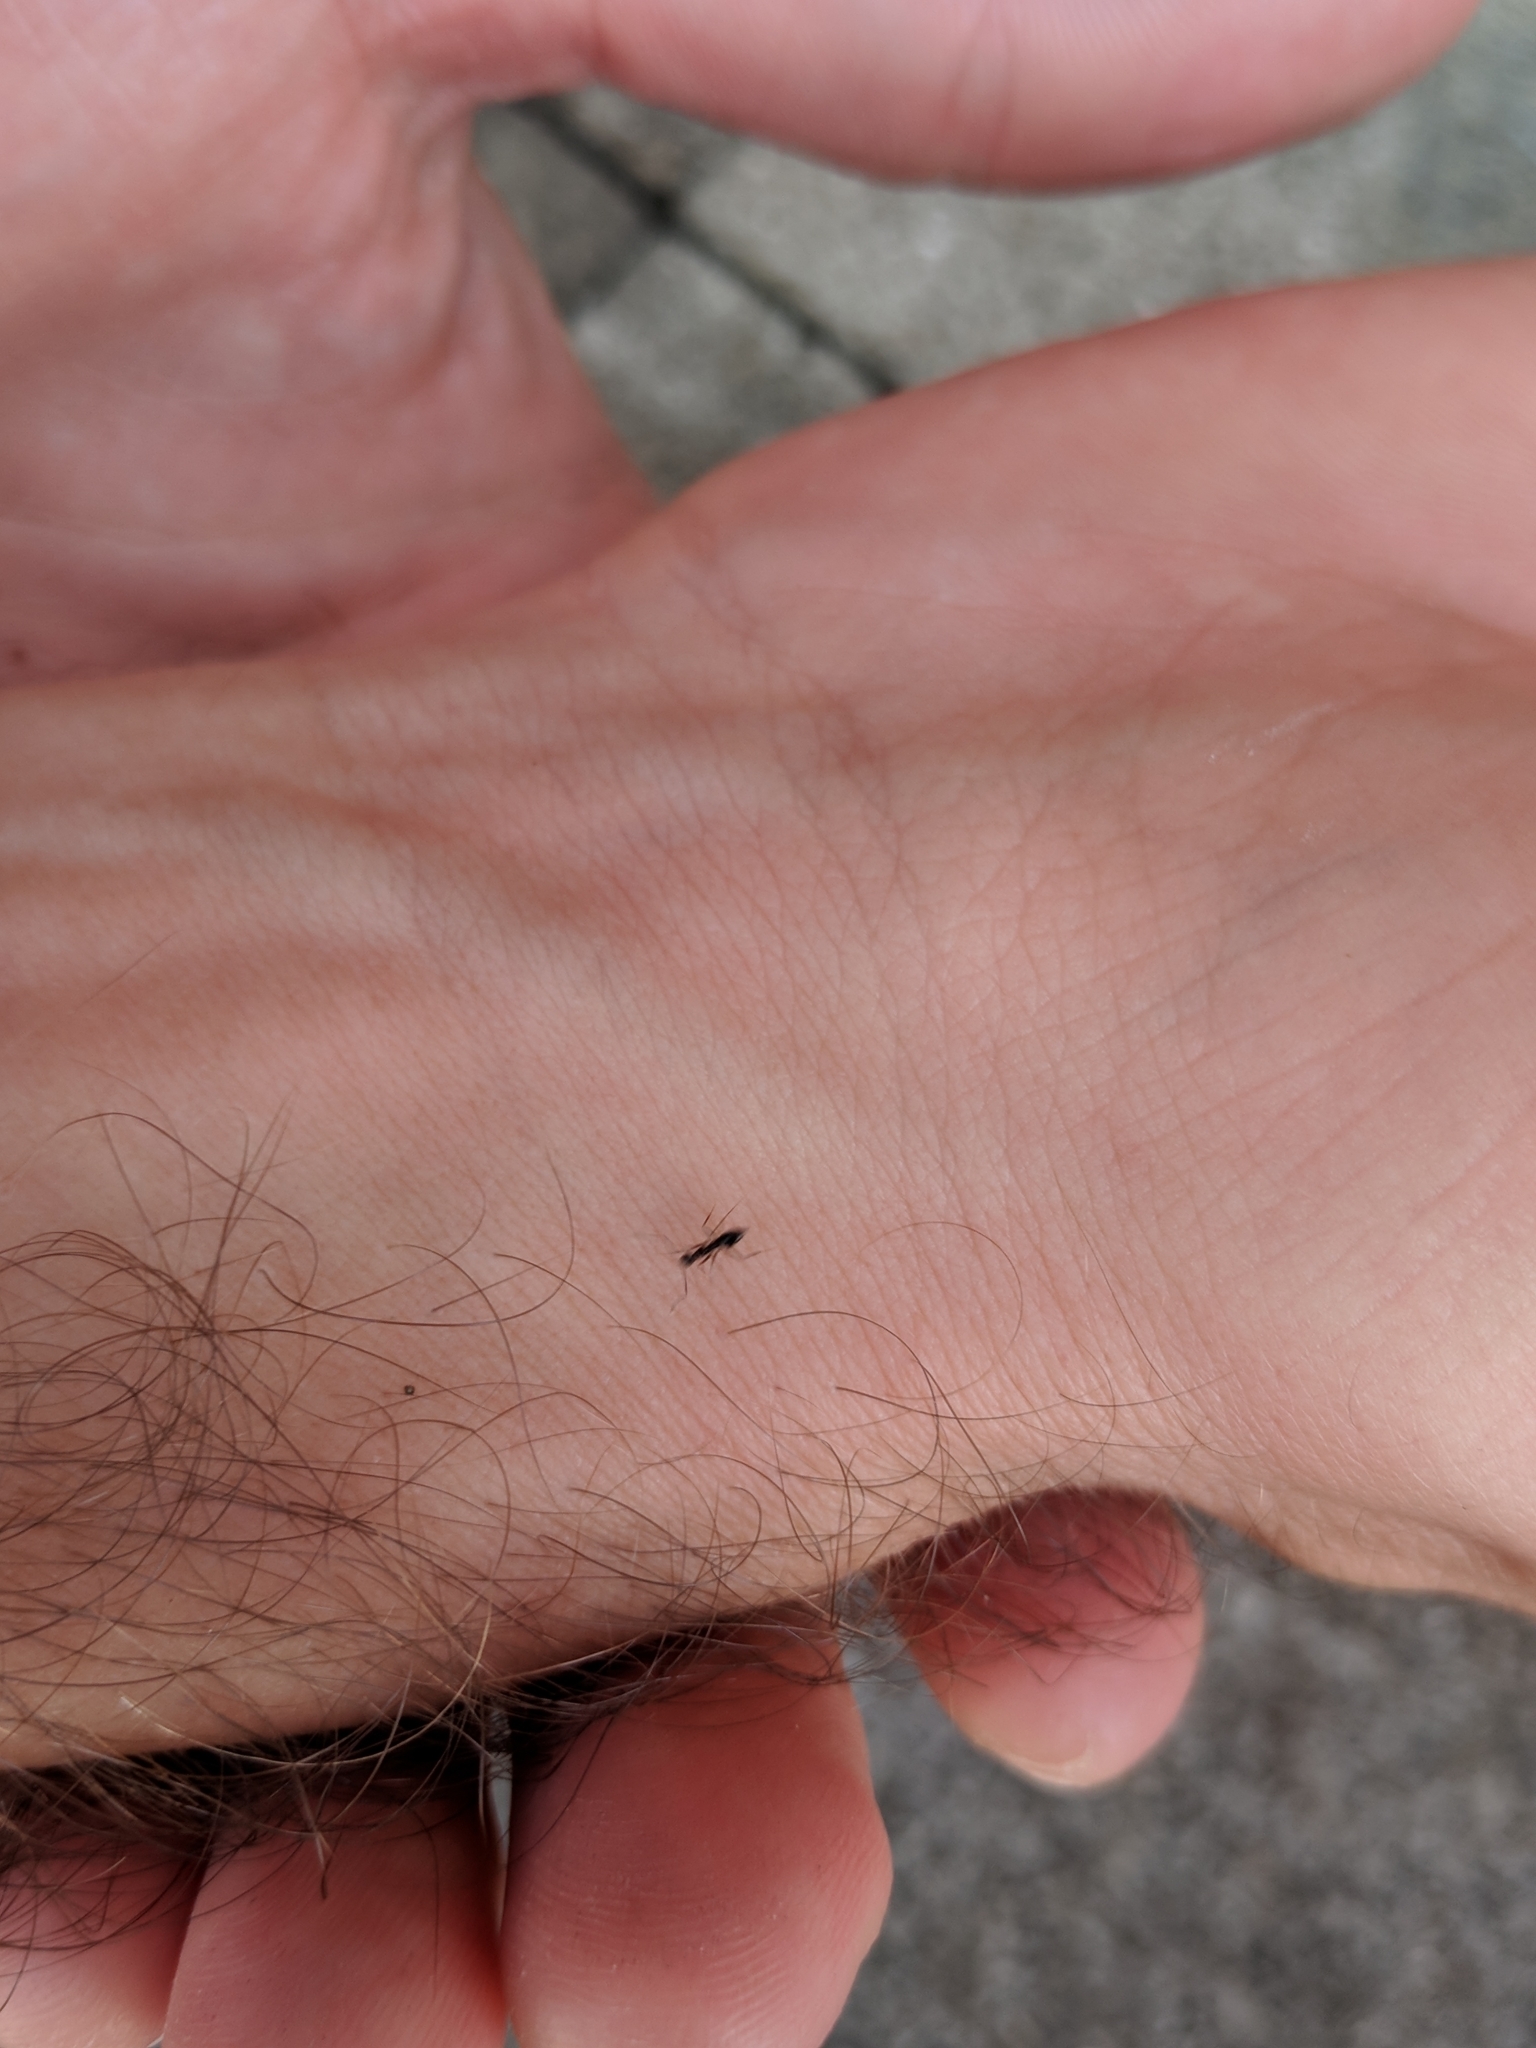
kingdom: Animalia
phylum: Arthropoda
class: Insecta
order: Hymenoptera
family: Formicidae
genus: Paratrechina
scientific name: Paratrechina longicornis
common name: Longhorned crazy ant
